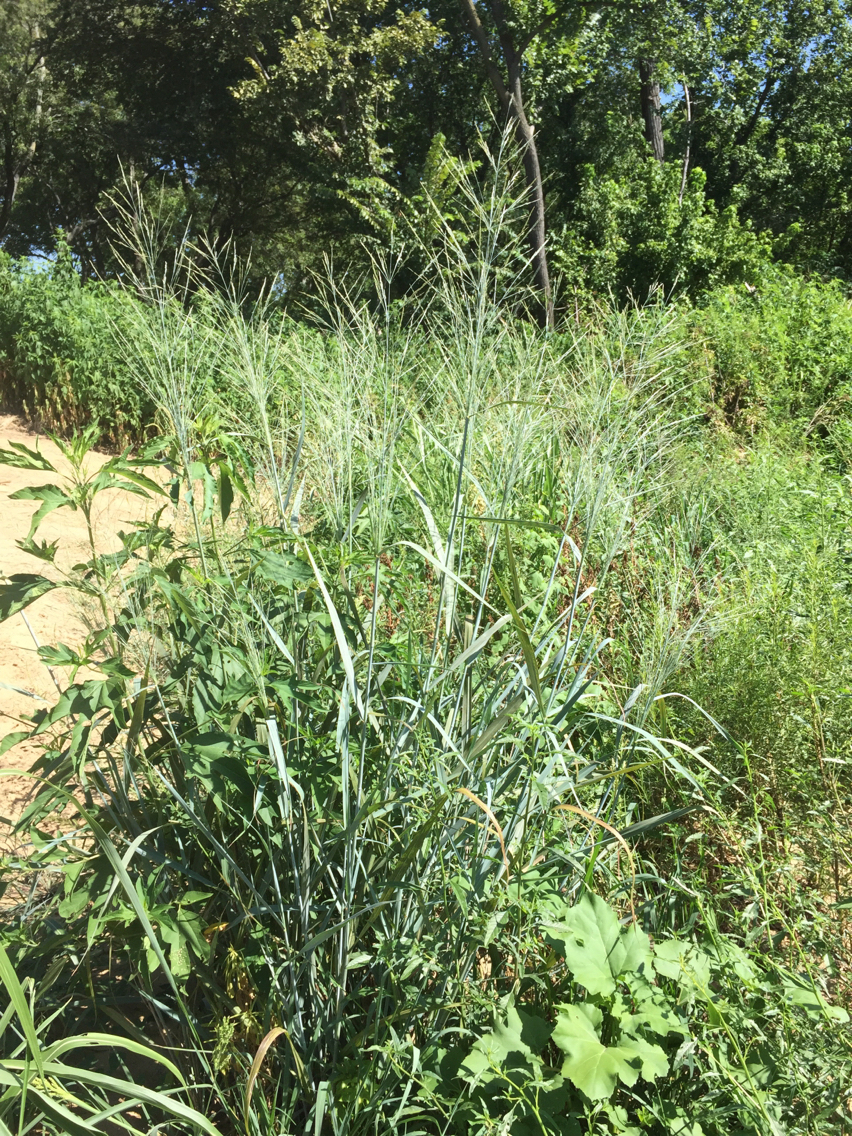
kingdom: Plantae
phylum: Tracheophyta
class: Liliopsida
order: Poales
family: Poaceae
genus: Panicum
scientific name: Panicum virgatum
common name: Switchgrass
